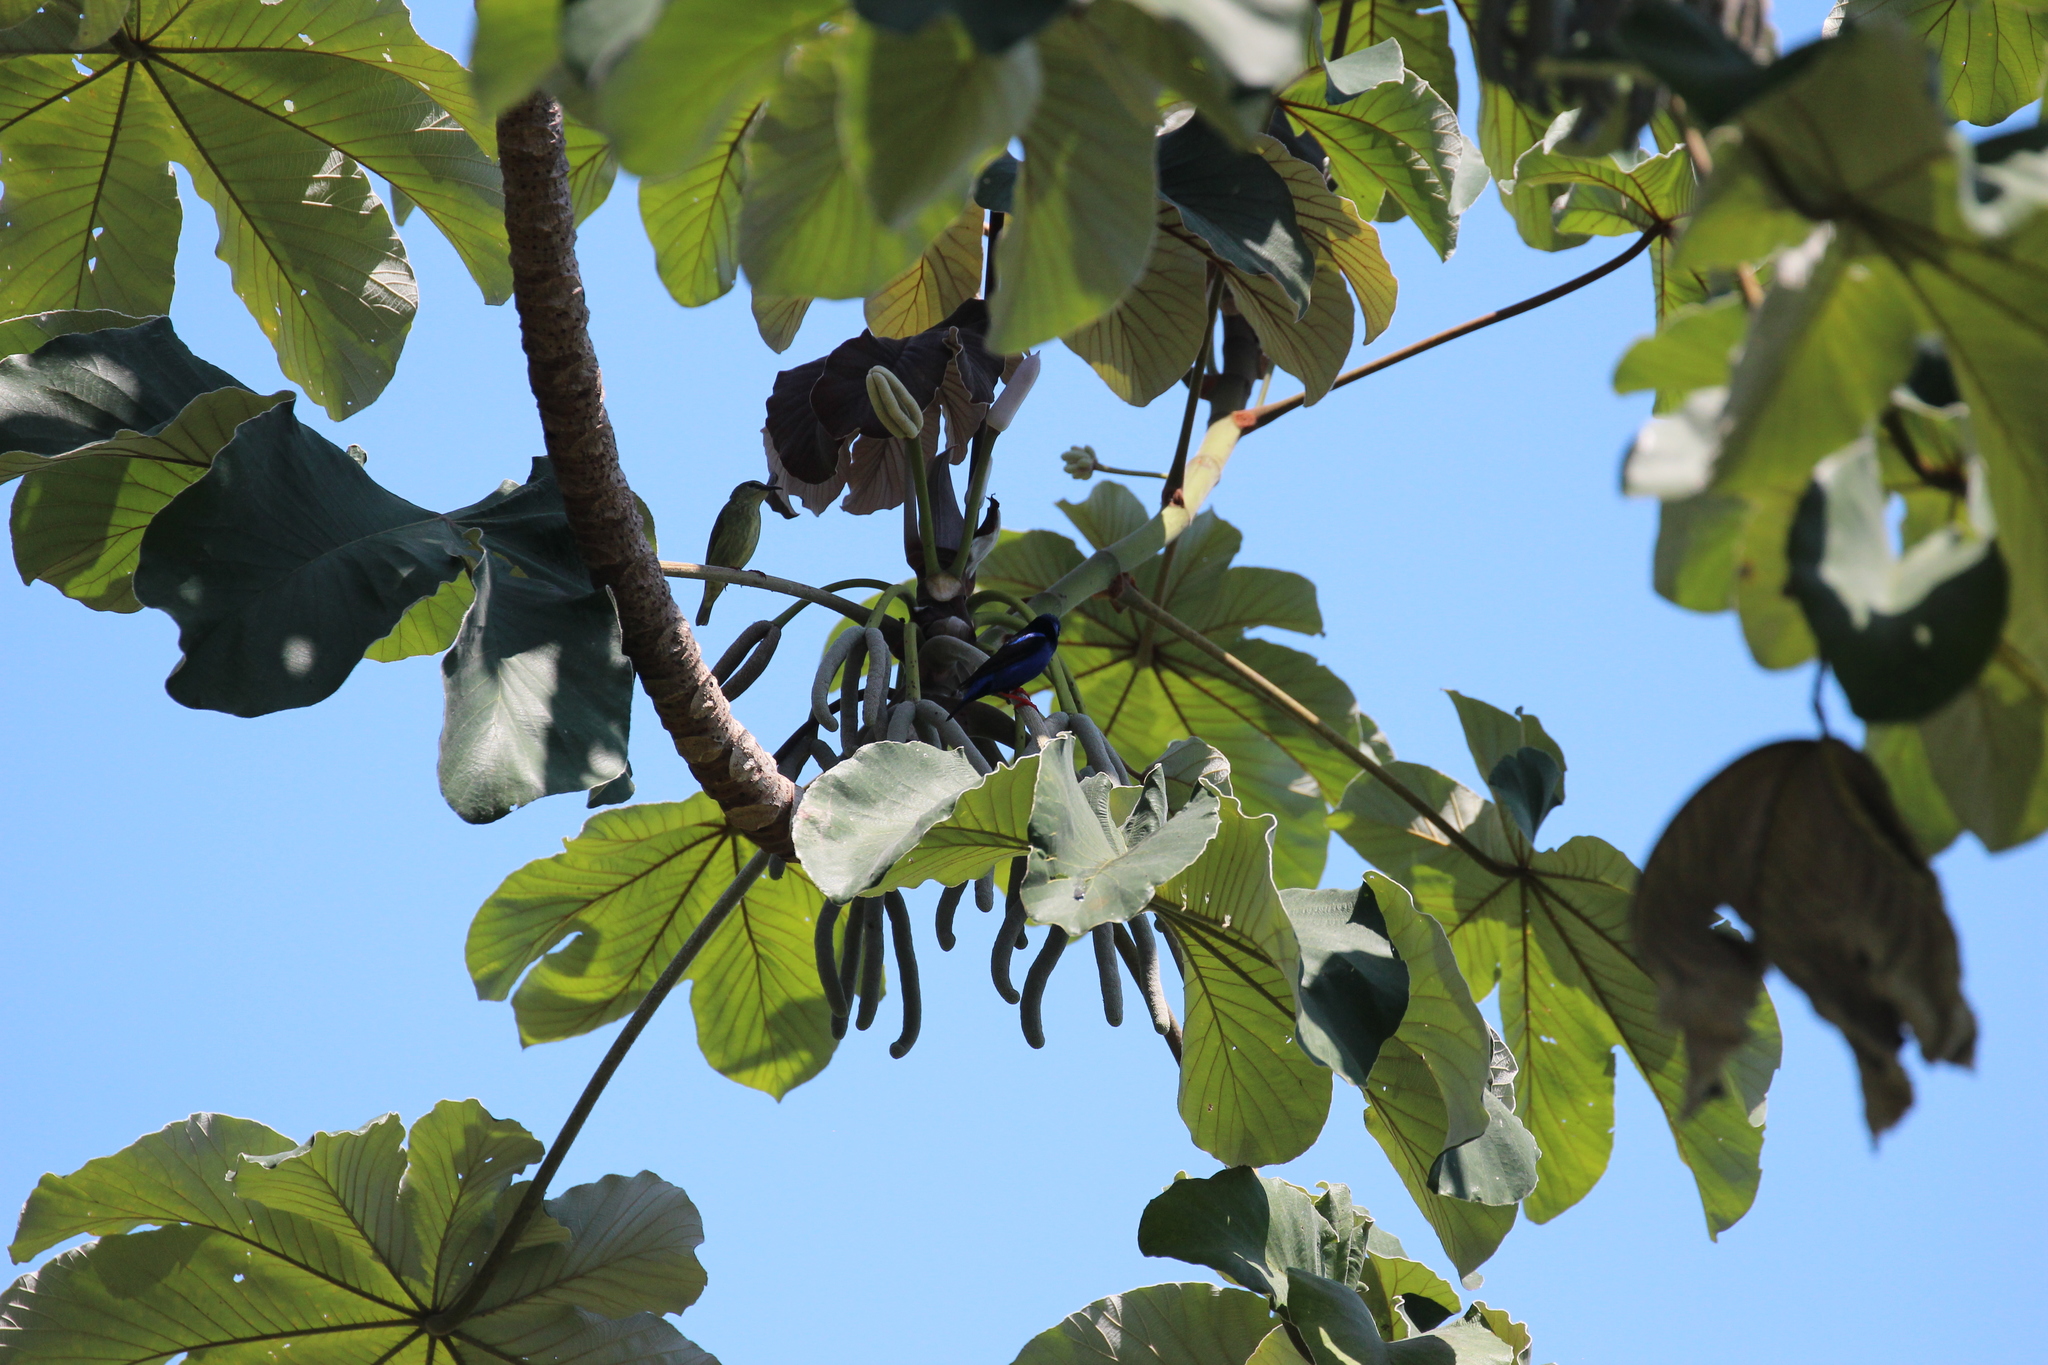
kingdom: Animalia
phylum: Chordata
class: Aves
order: Passeriformes
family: Thraupidae
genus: Cyanerpes
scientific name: Cyanerpes cyaneus
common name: Red-legged honeycreeper
